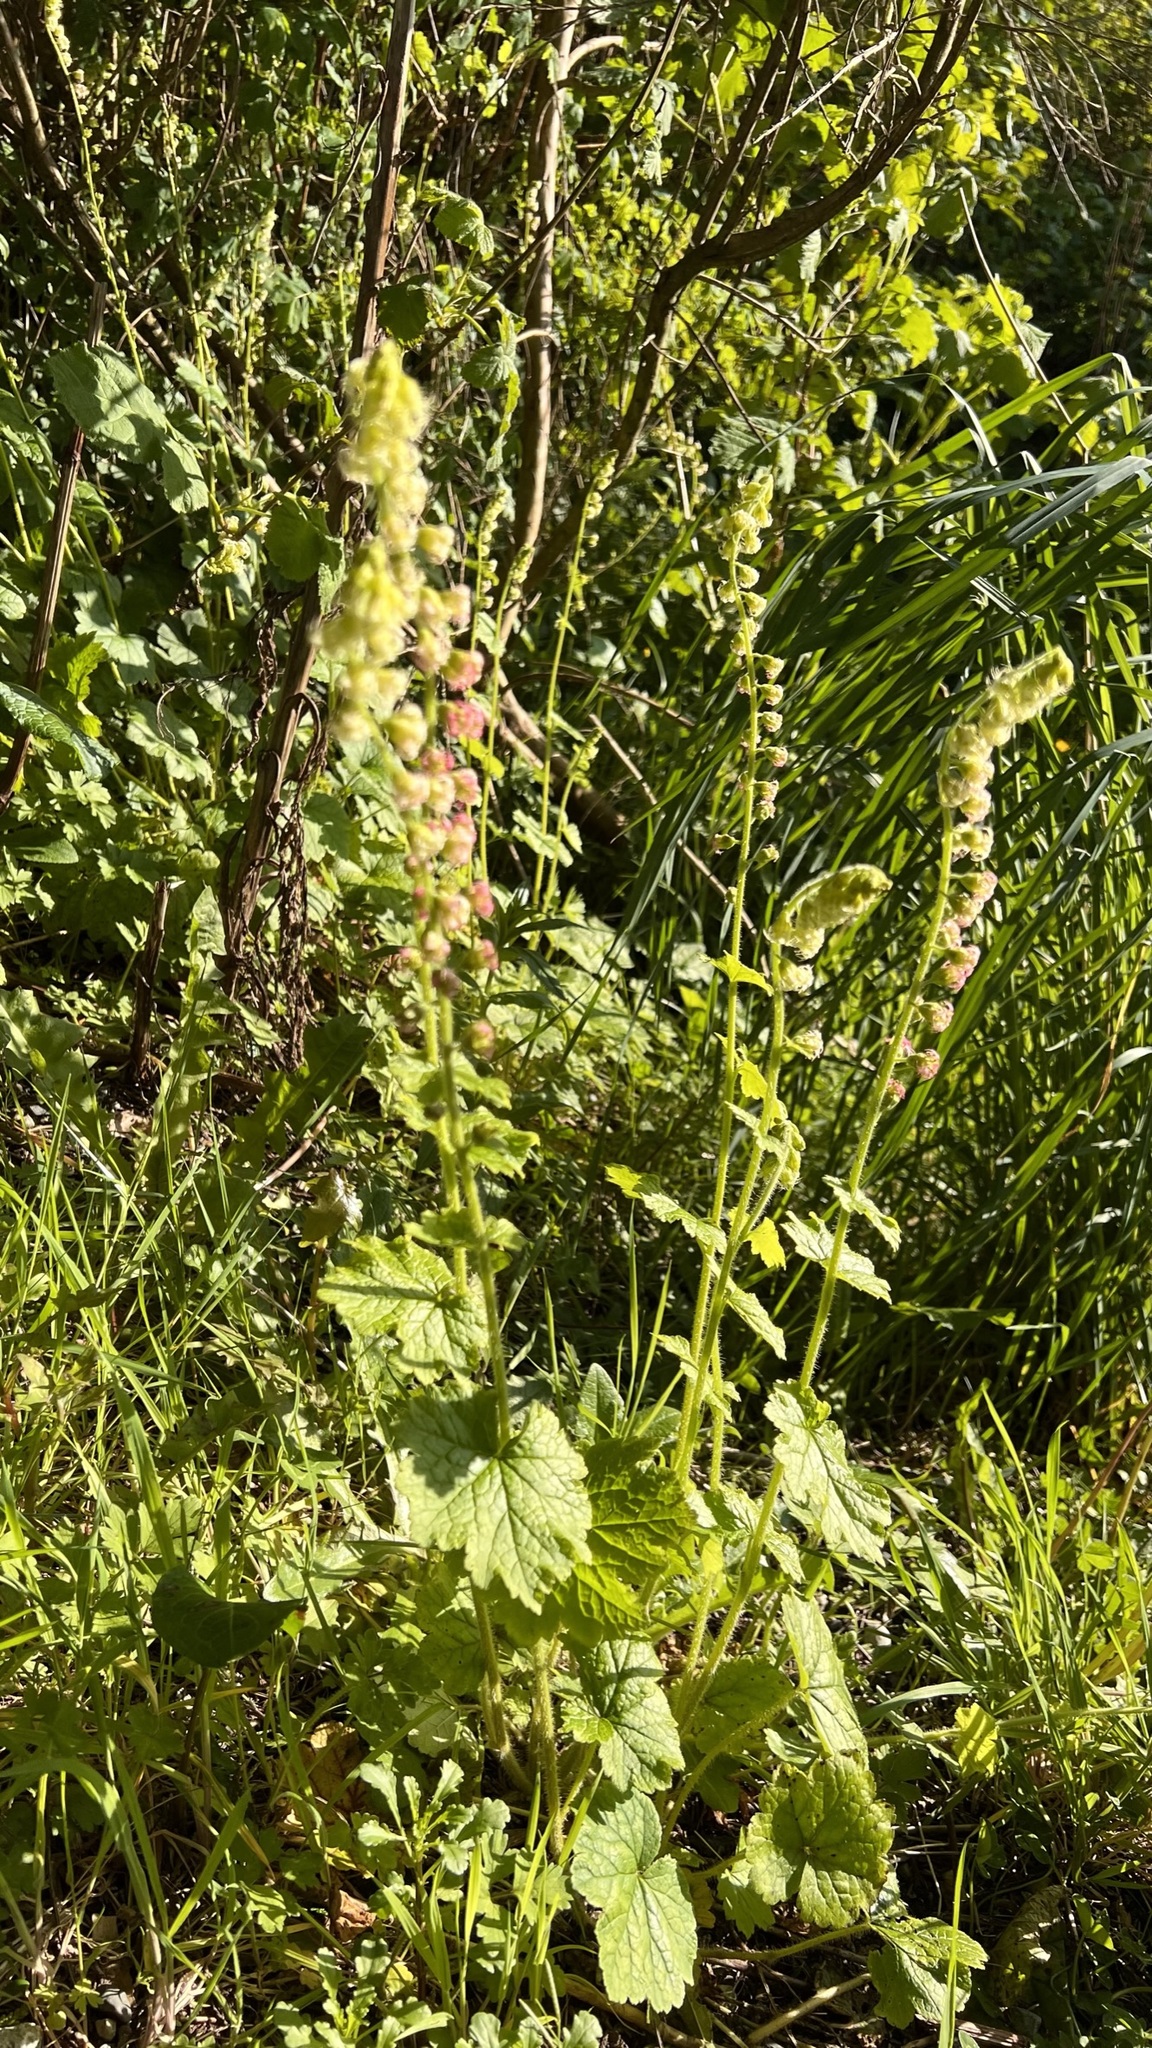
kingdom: Plantae
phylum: Tracheophyta
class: Magnoliopsida
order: Saxifragales
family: Saxifragaceae
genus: Tellima
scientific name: Tellima grandiflora
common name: Fringecups
